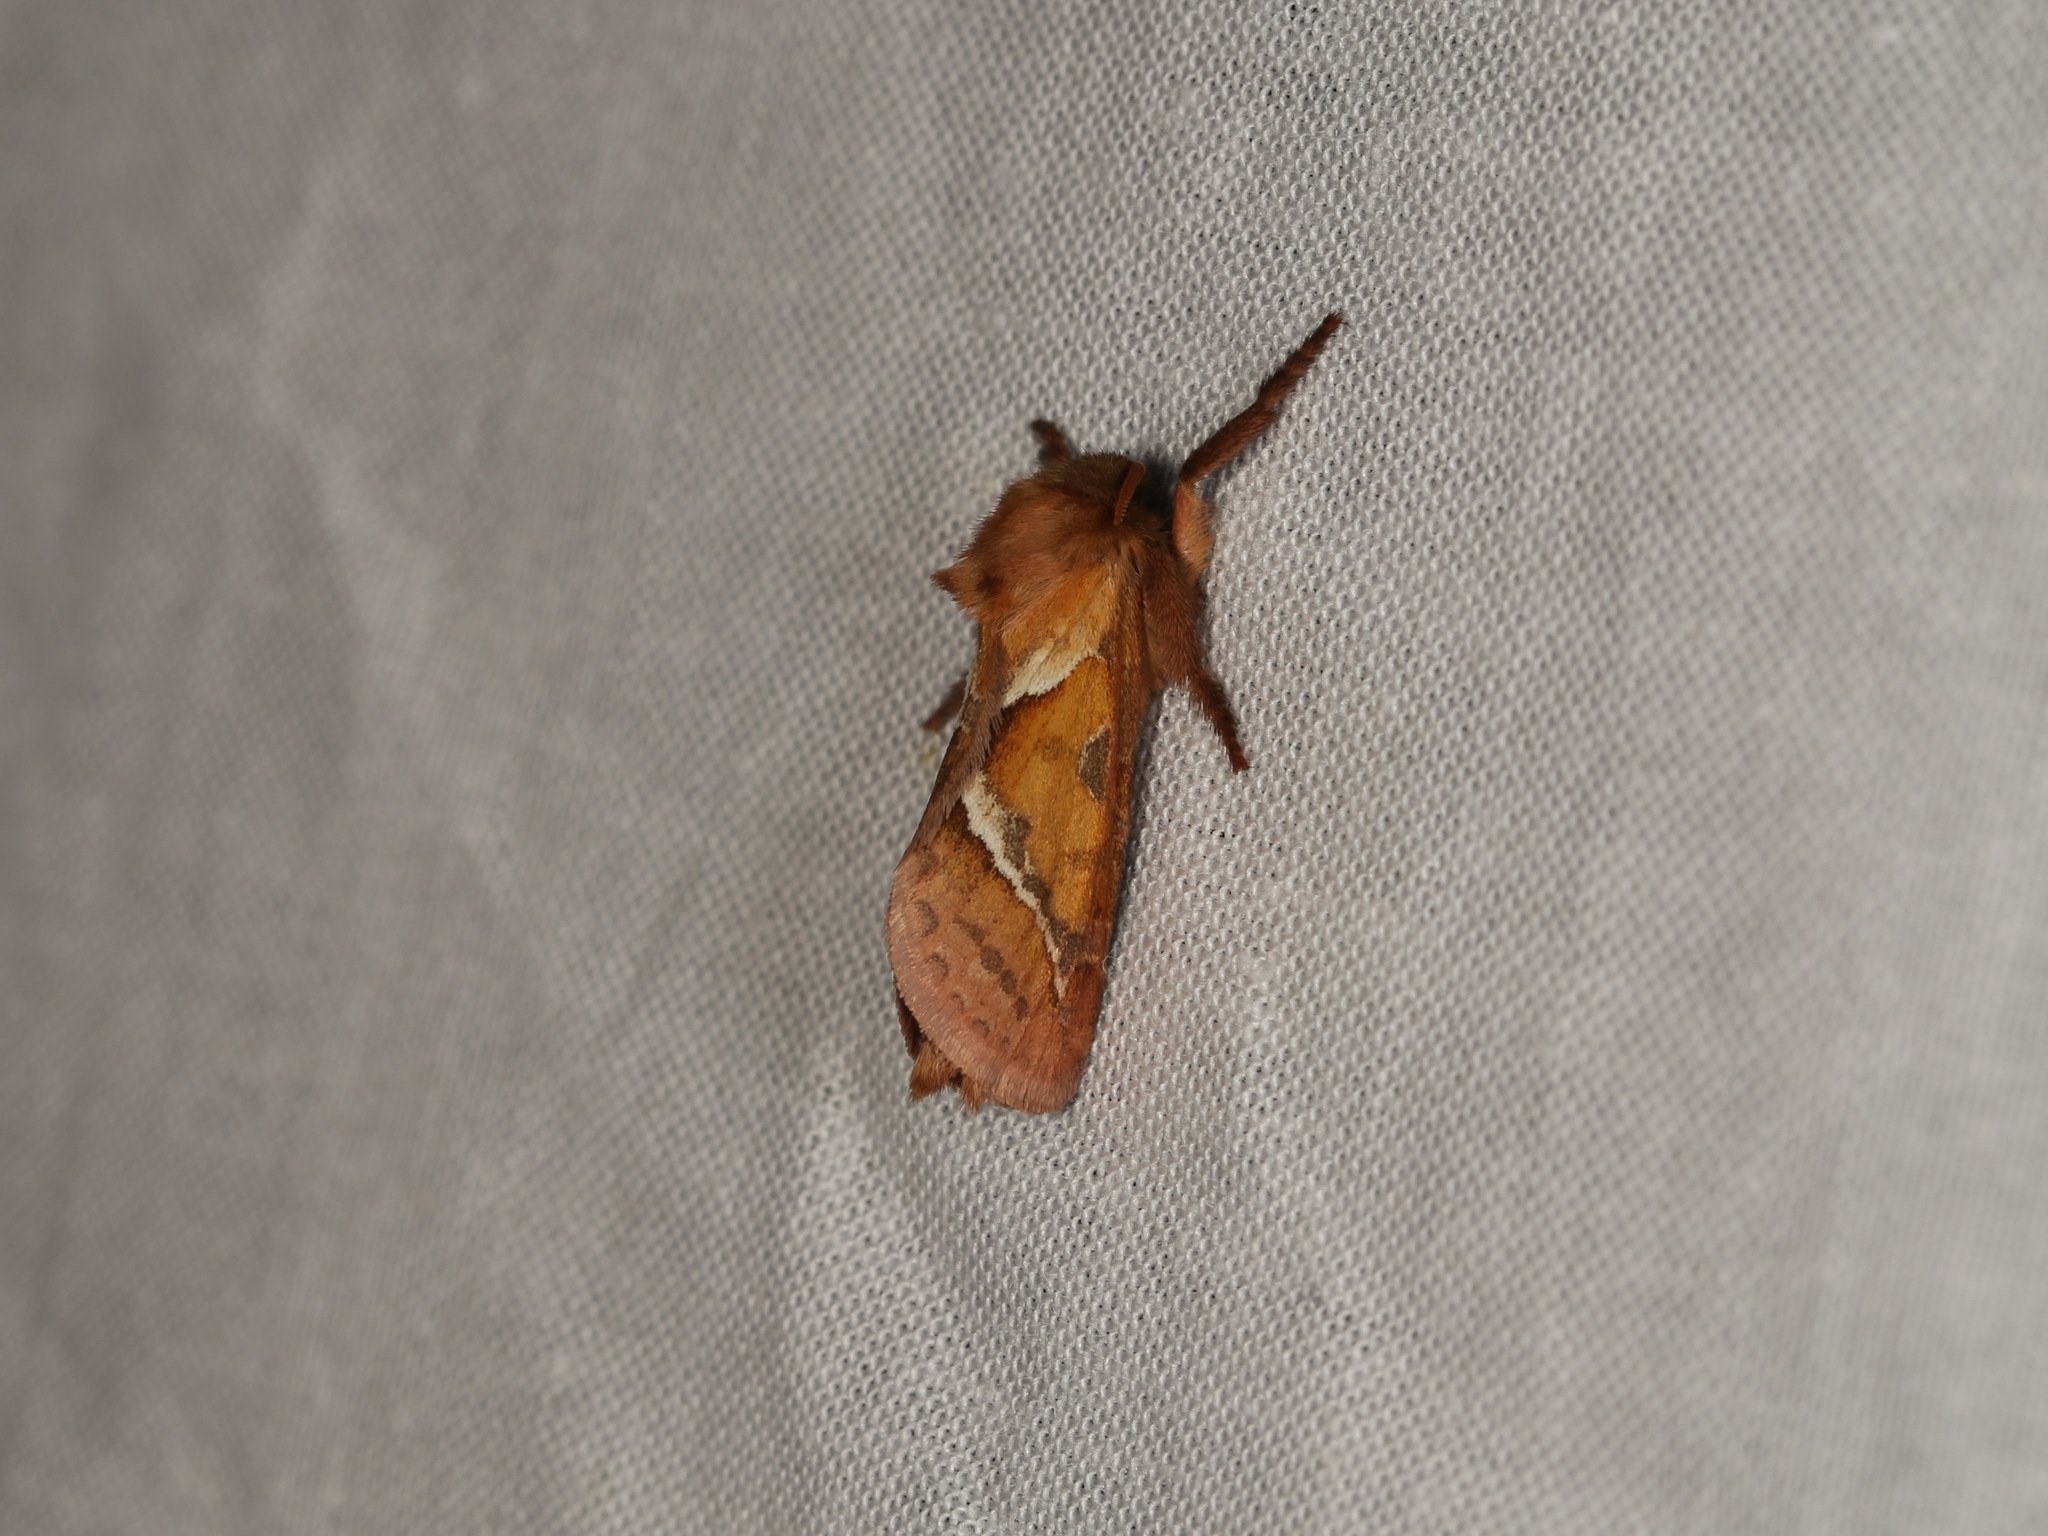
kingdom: Animalia
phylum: Arthropoda
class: Insecta
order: Lepidoptera
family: Hepialidae
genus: Triodia
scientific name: Triodia sylvina
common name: Orange swift
